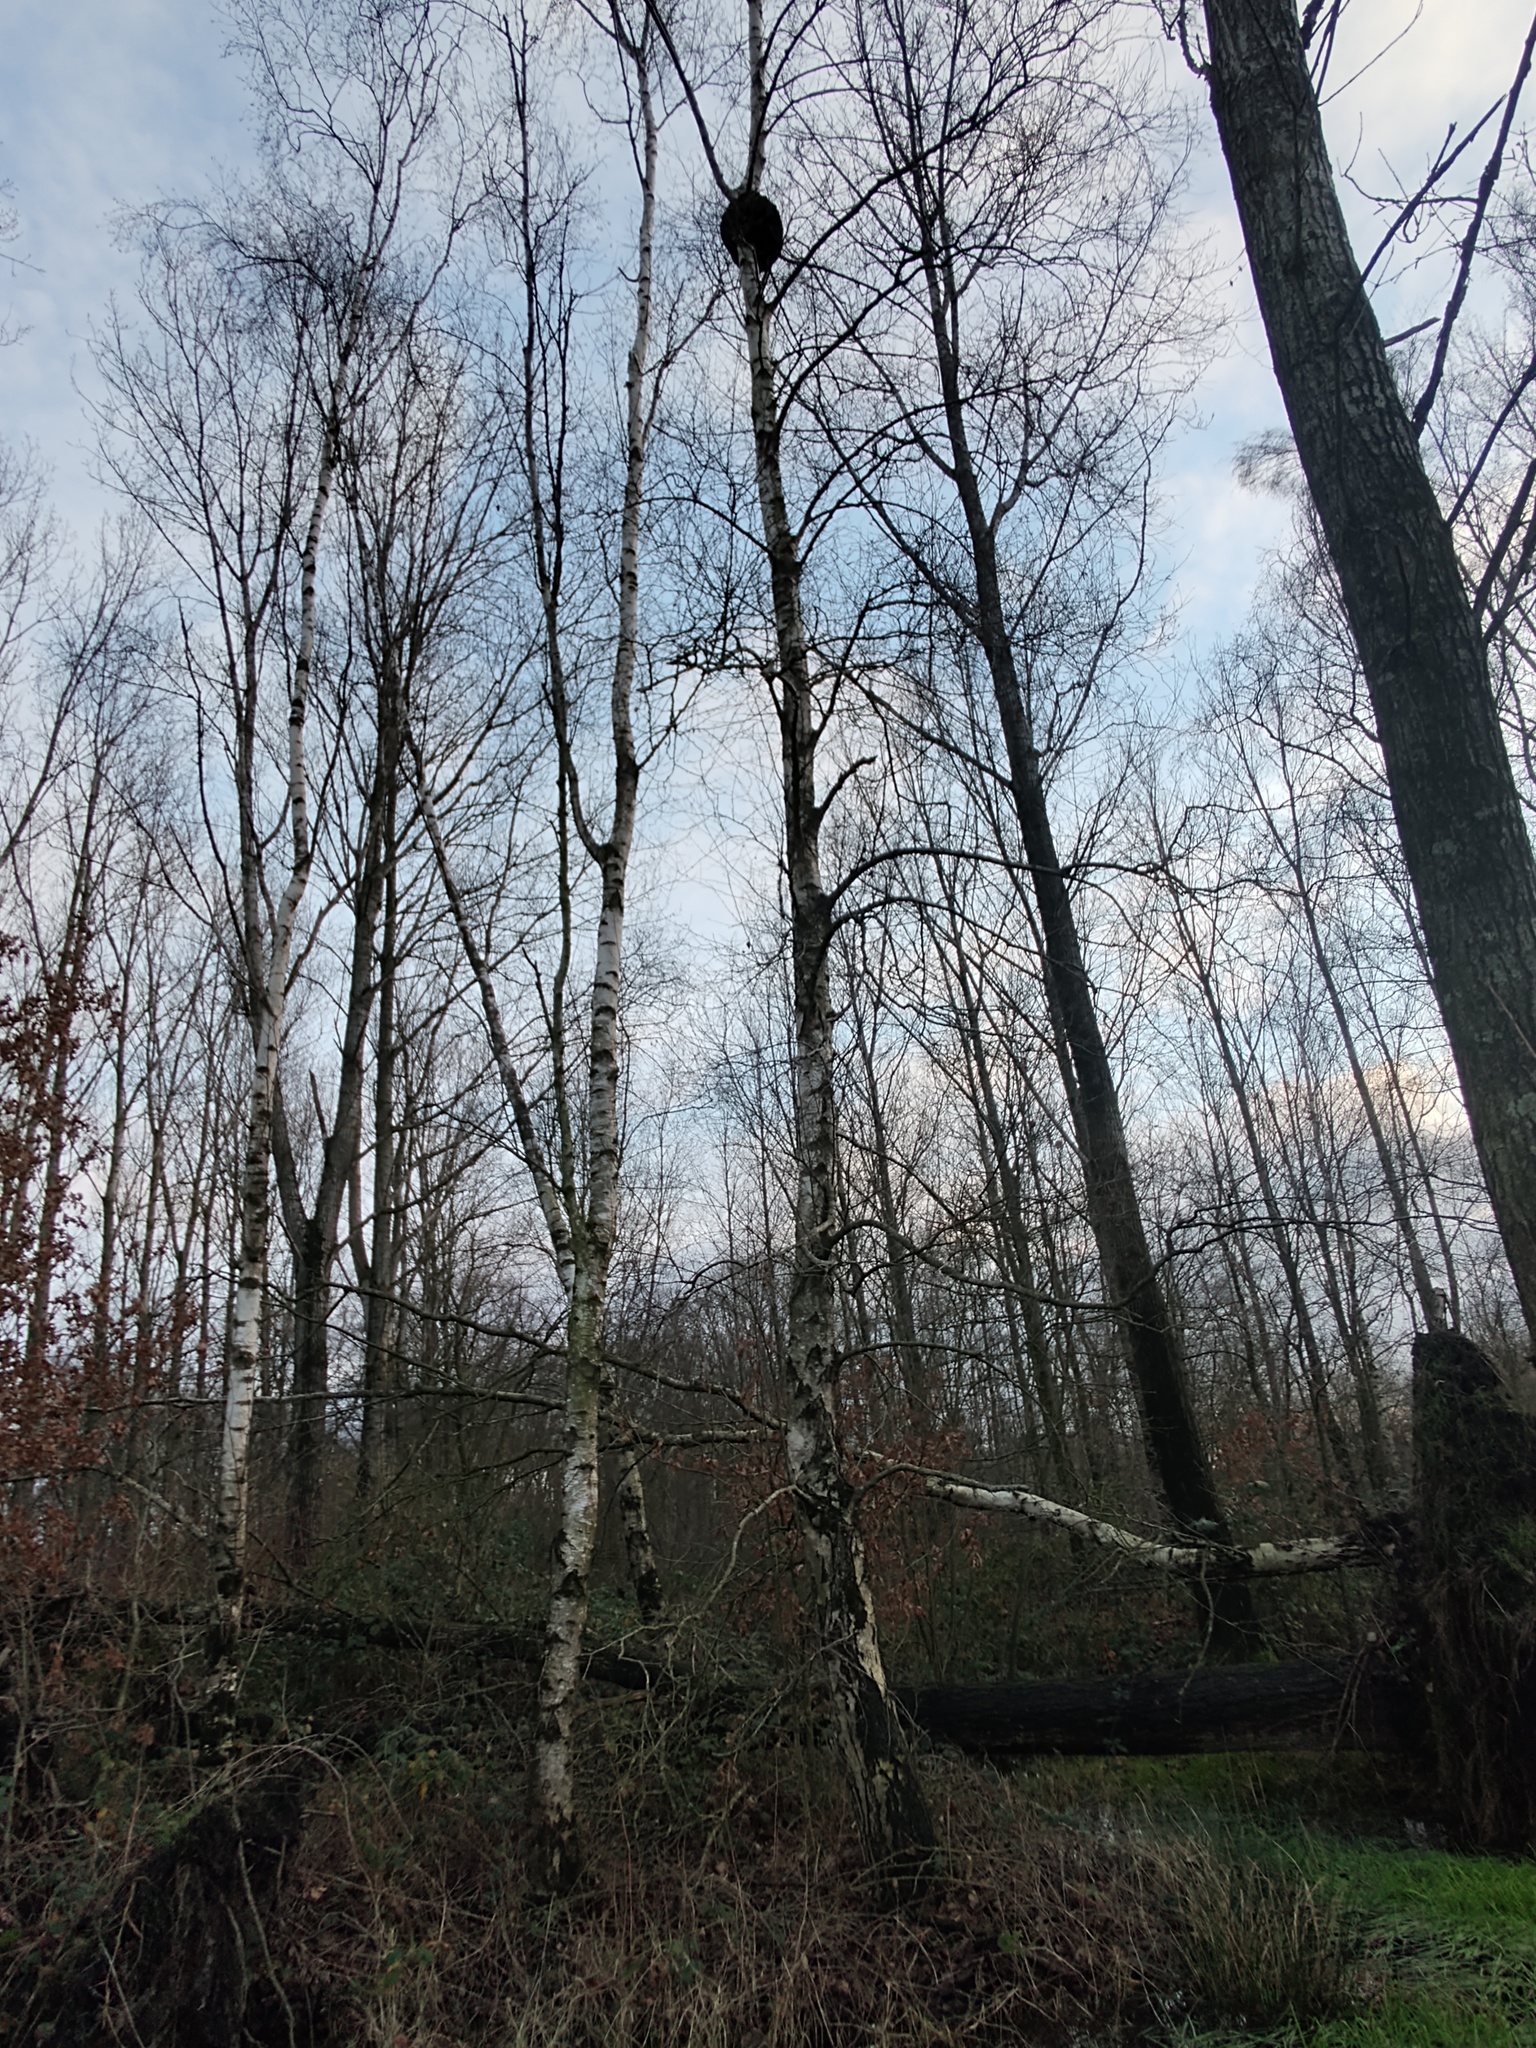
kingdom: Plantae
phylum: Tracheophyta
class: Magnoliopsida
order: Fagales
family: Betulaceae
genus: Betula
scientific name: Betula pendula
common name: Silver birch
